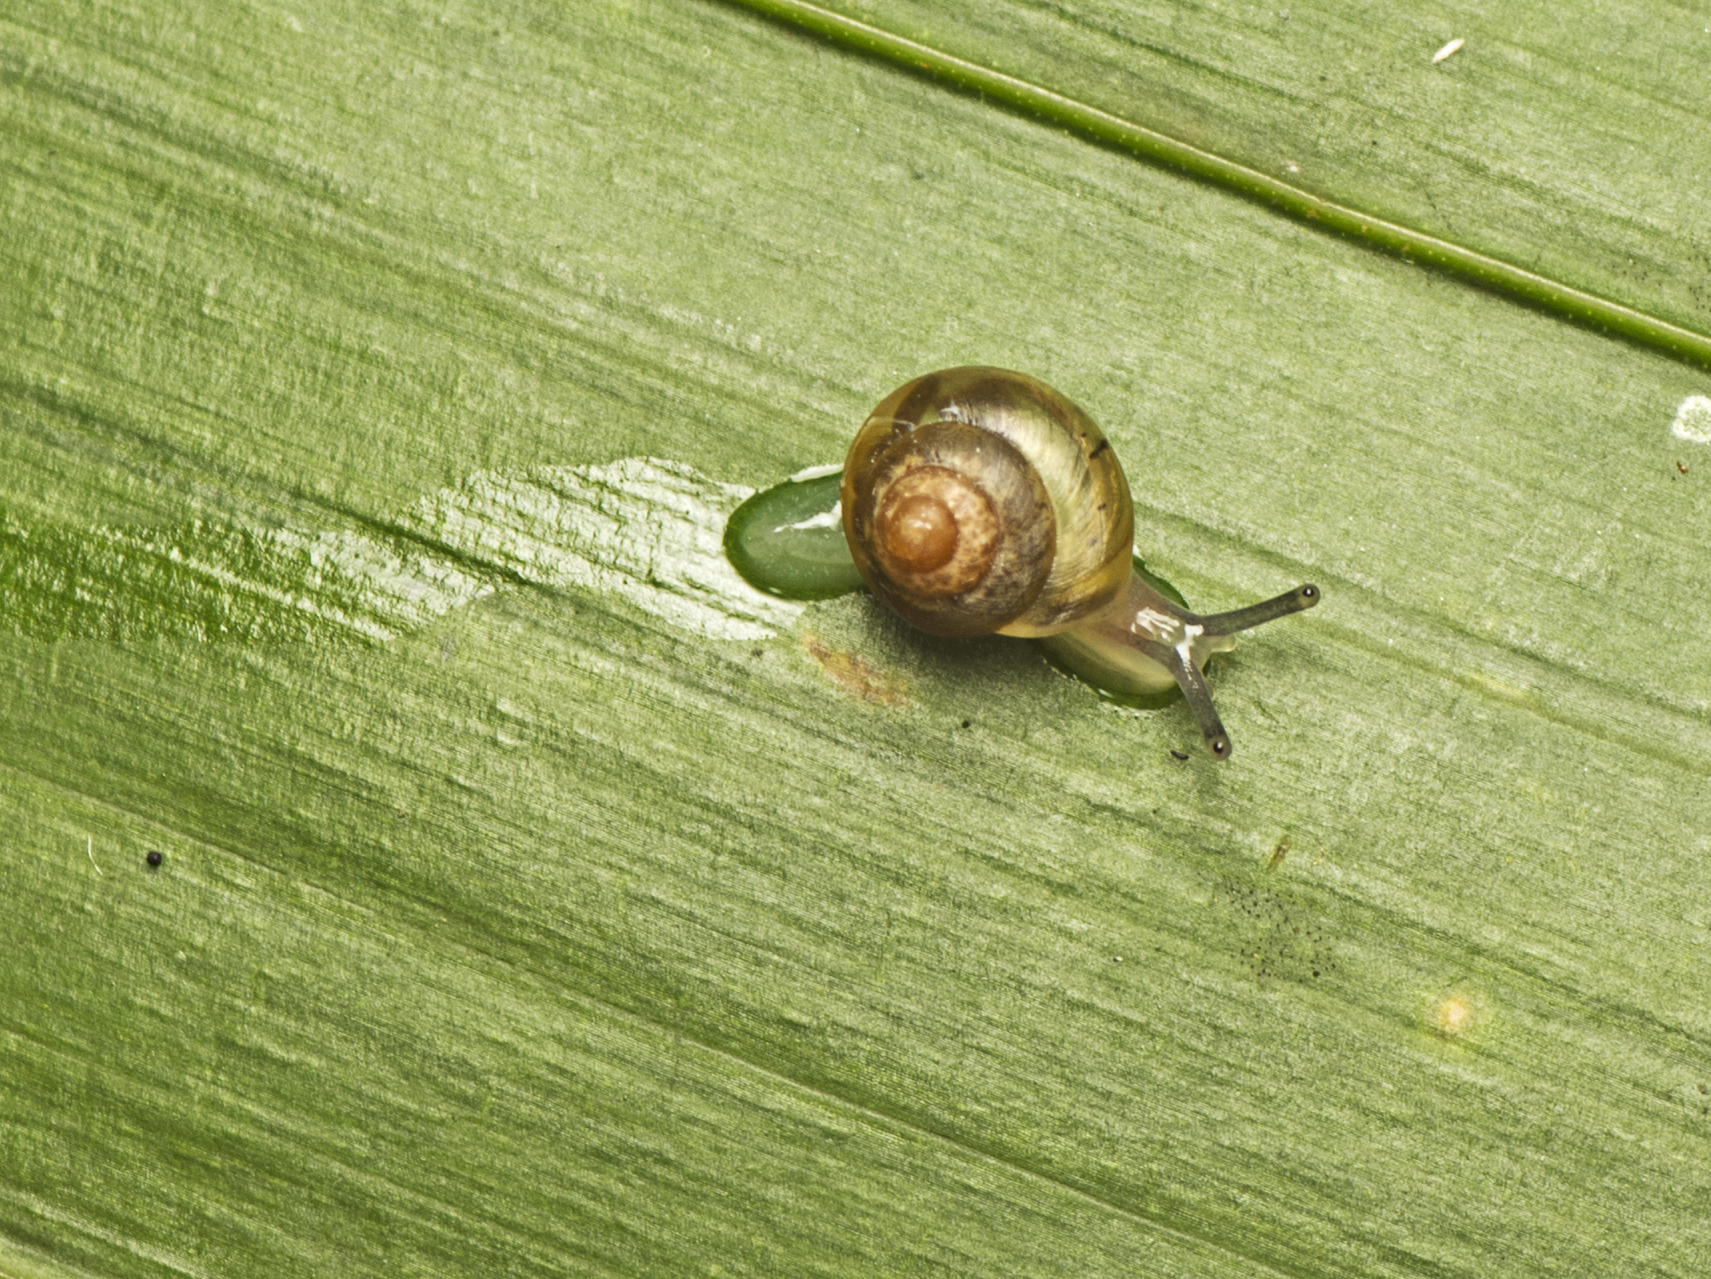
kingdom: Animalia
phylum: Mollusca
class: Gastropoda
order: Stylommatophora
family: Euconulidae
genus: Coneuplecta
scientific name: Coneuplecta calculosa
